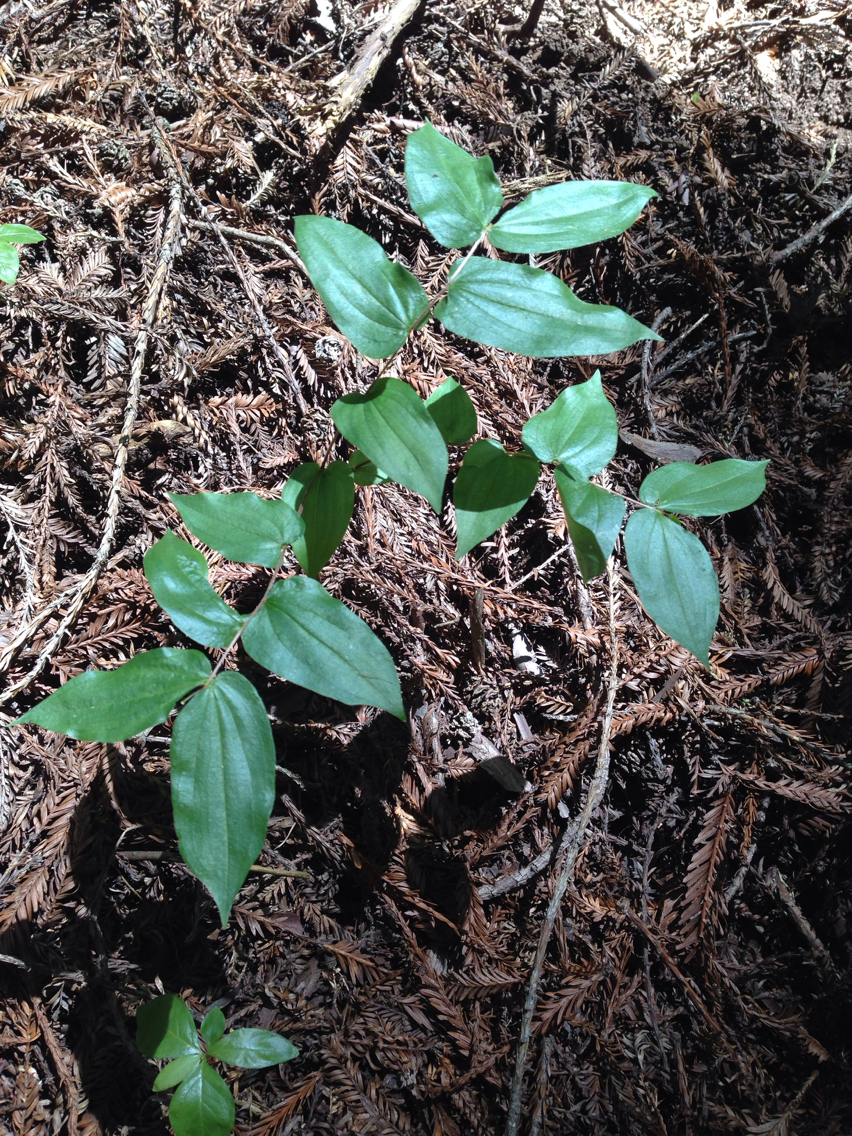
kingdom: Plantae
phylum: Tracheophyta
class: Liliopsida
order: Liliales
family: Liliaceae
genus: Prosartes
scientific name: Prosartes hookeri
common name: Fairy-bells
